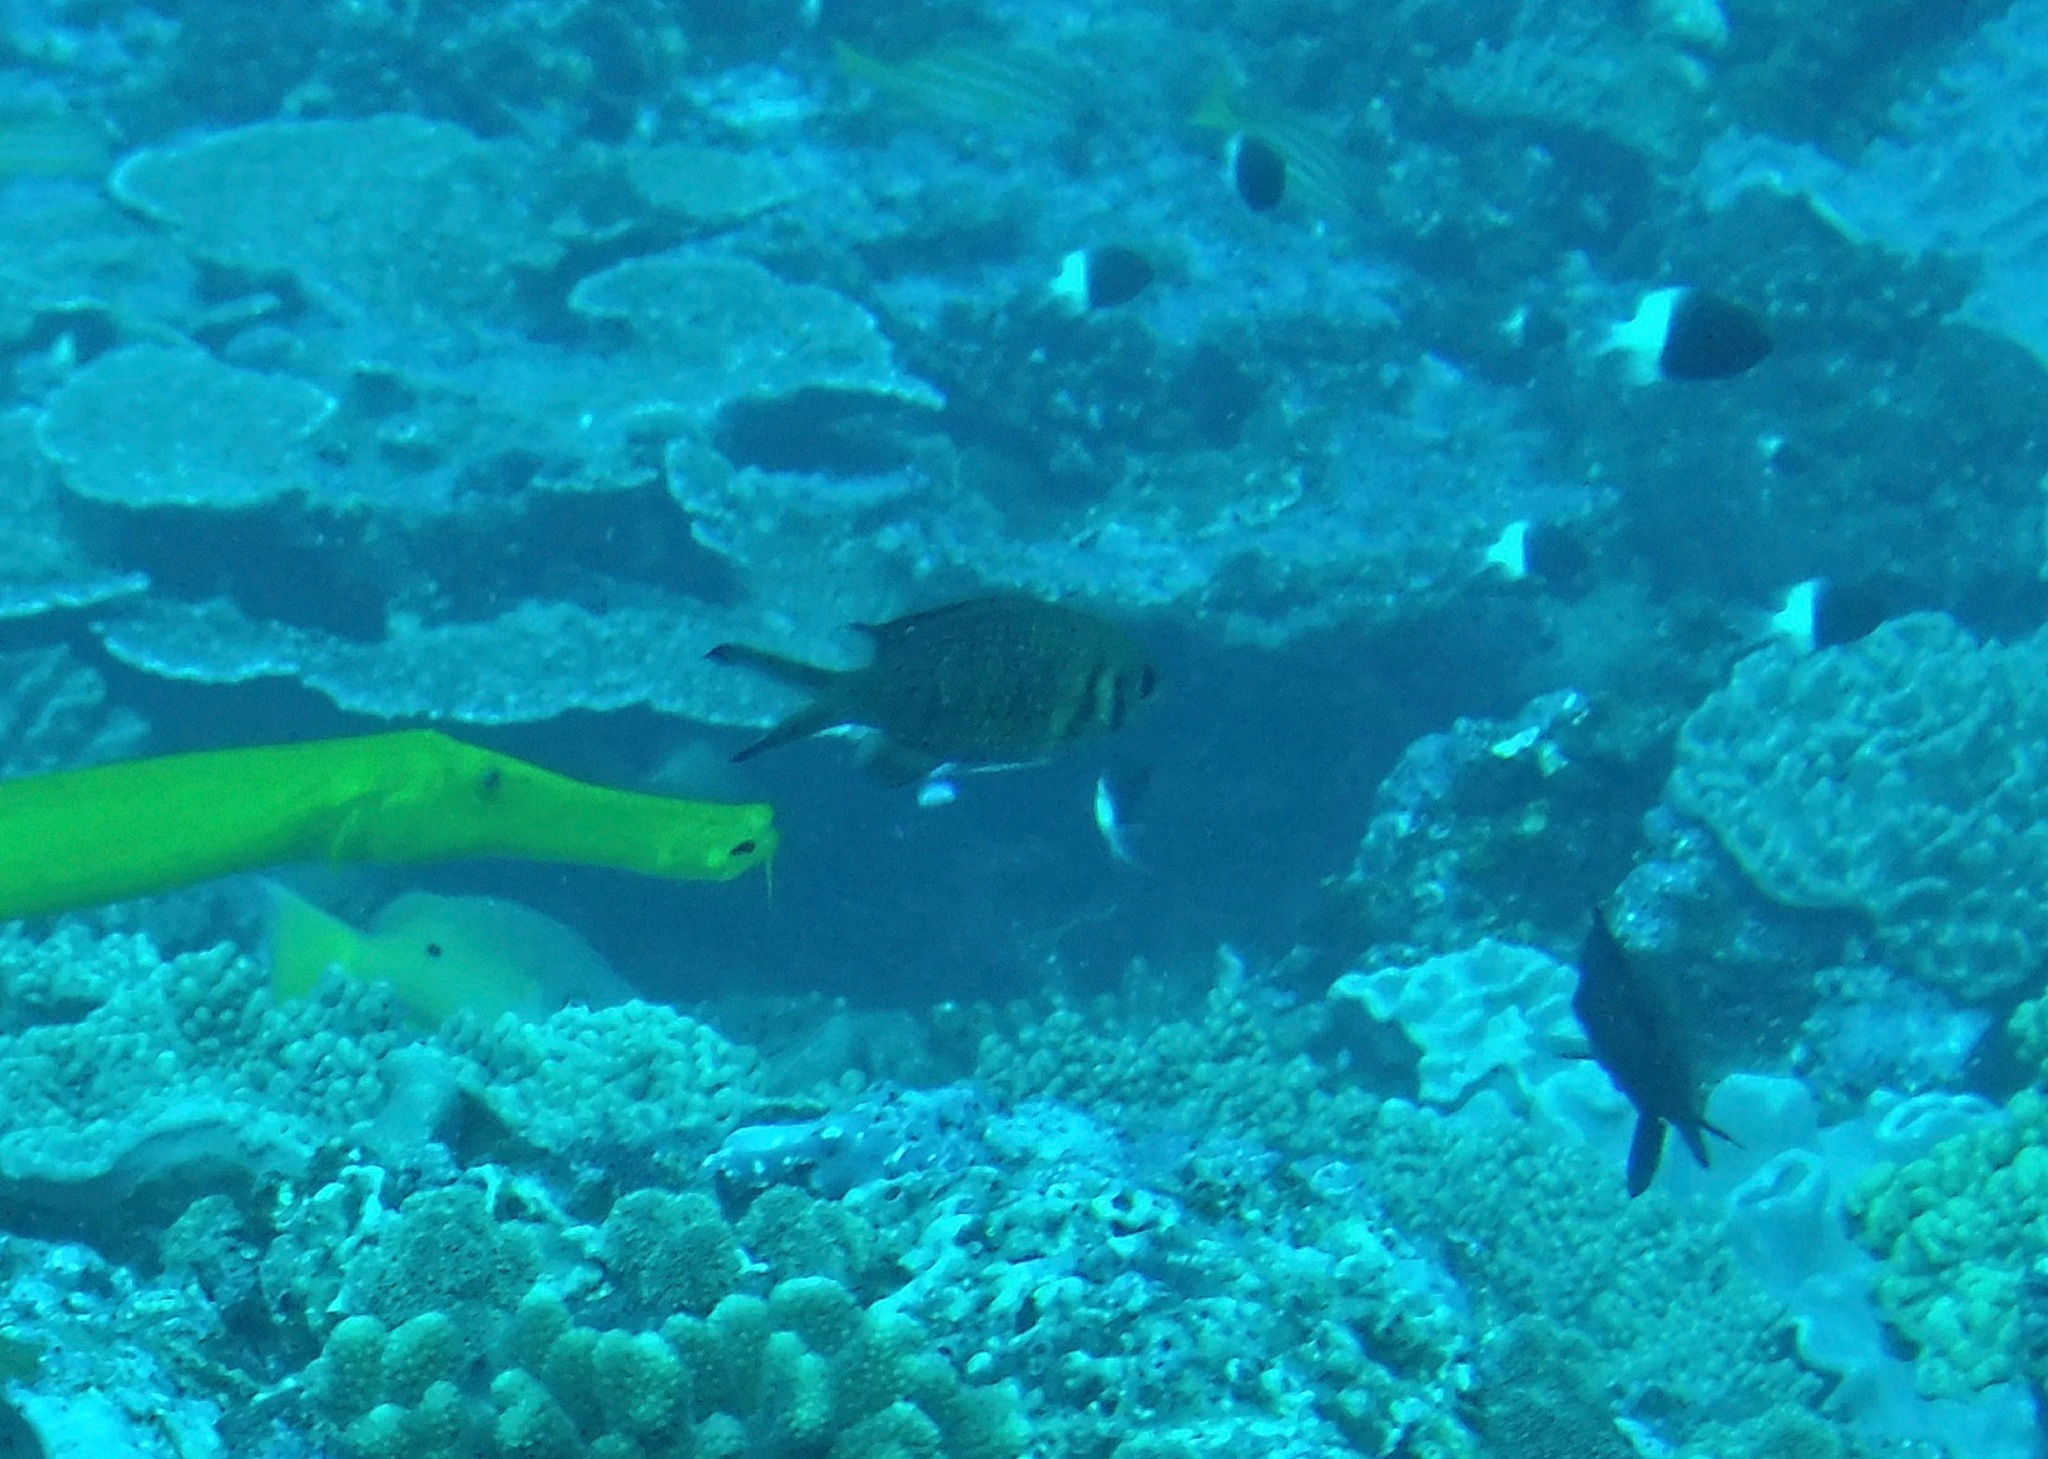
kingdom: Animalia
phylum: Chordata
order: Perciformes
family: Pomacentridae
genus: Chromis
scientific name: Chromis weberi
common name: Weber's chromis
